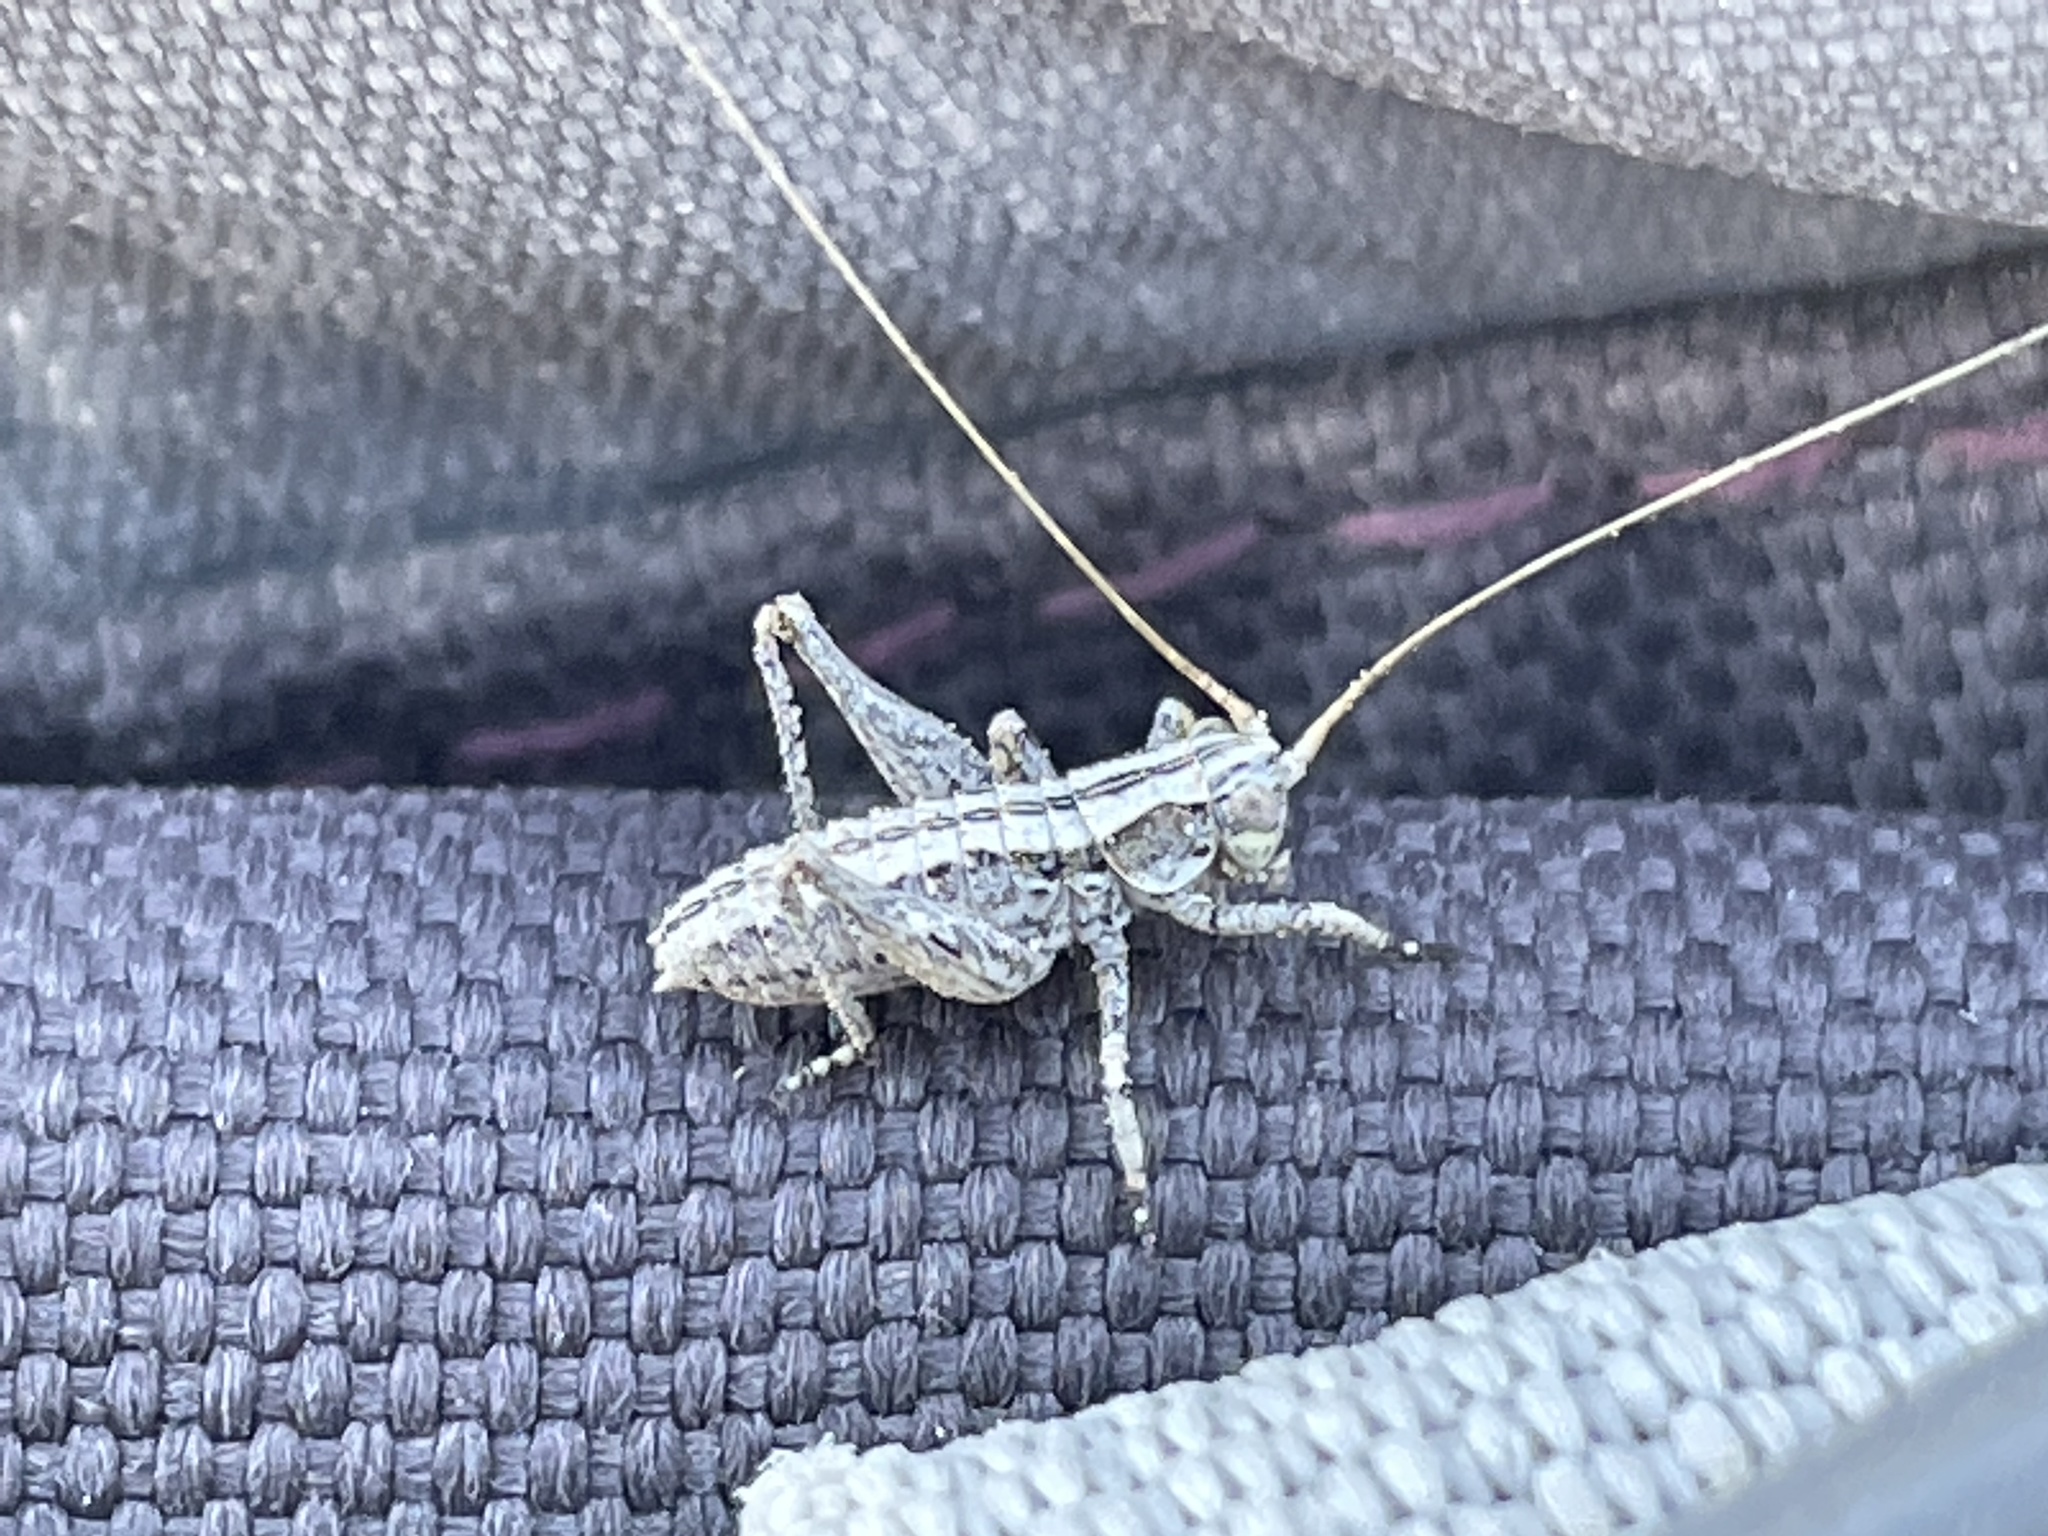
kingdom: Animalia
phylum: Arthropoda
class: Insecta
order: Orthoptera
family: Tettigoniidae
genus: Capnobotes
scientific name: Capnobotes fuliginosus
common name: Sooty longwing
